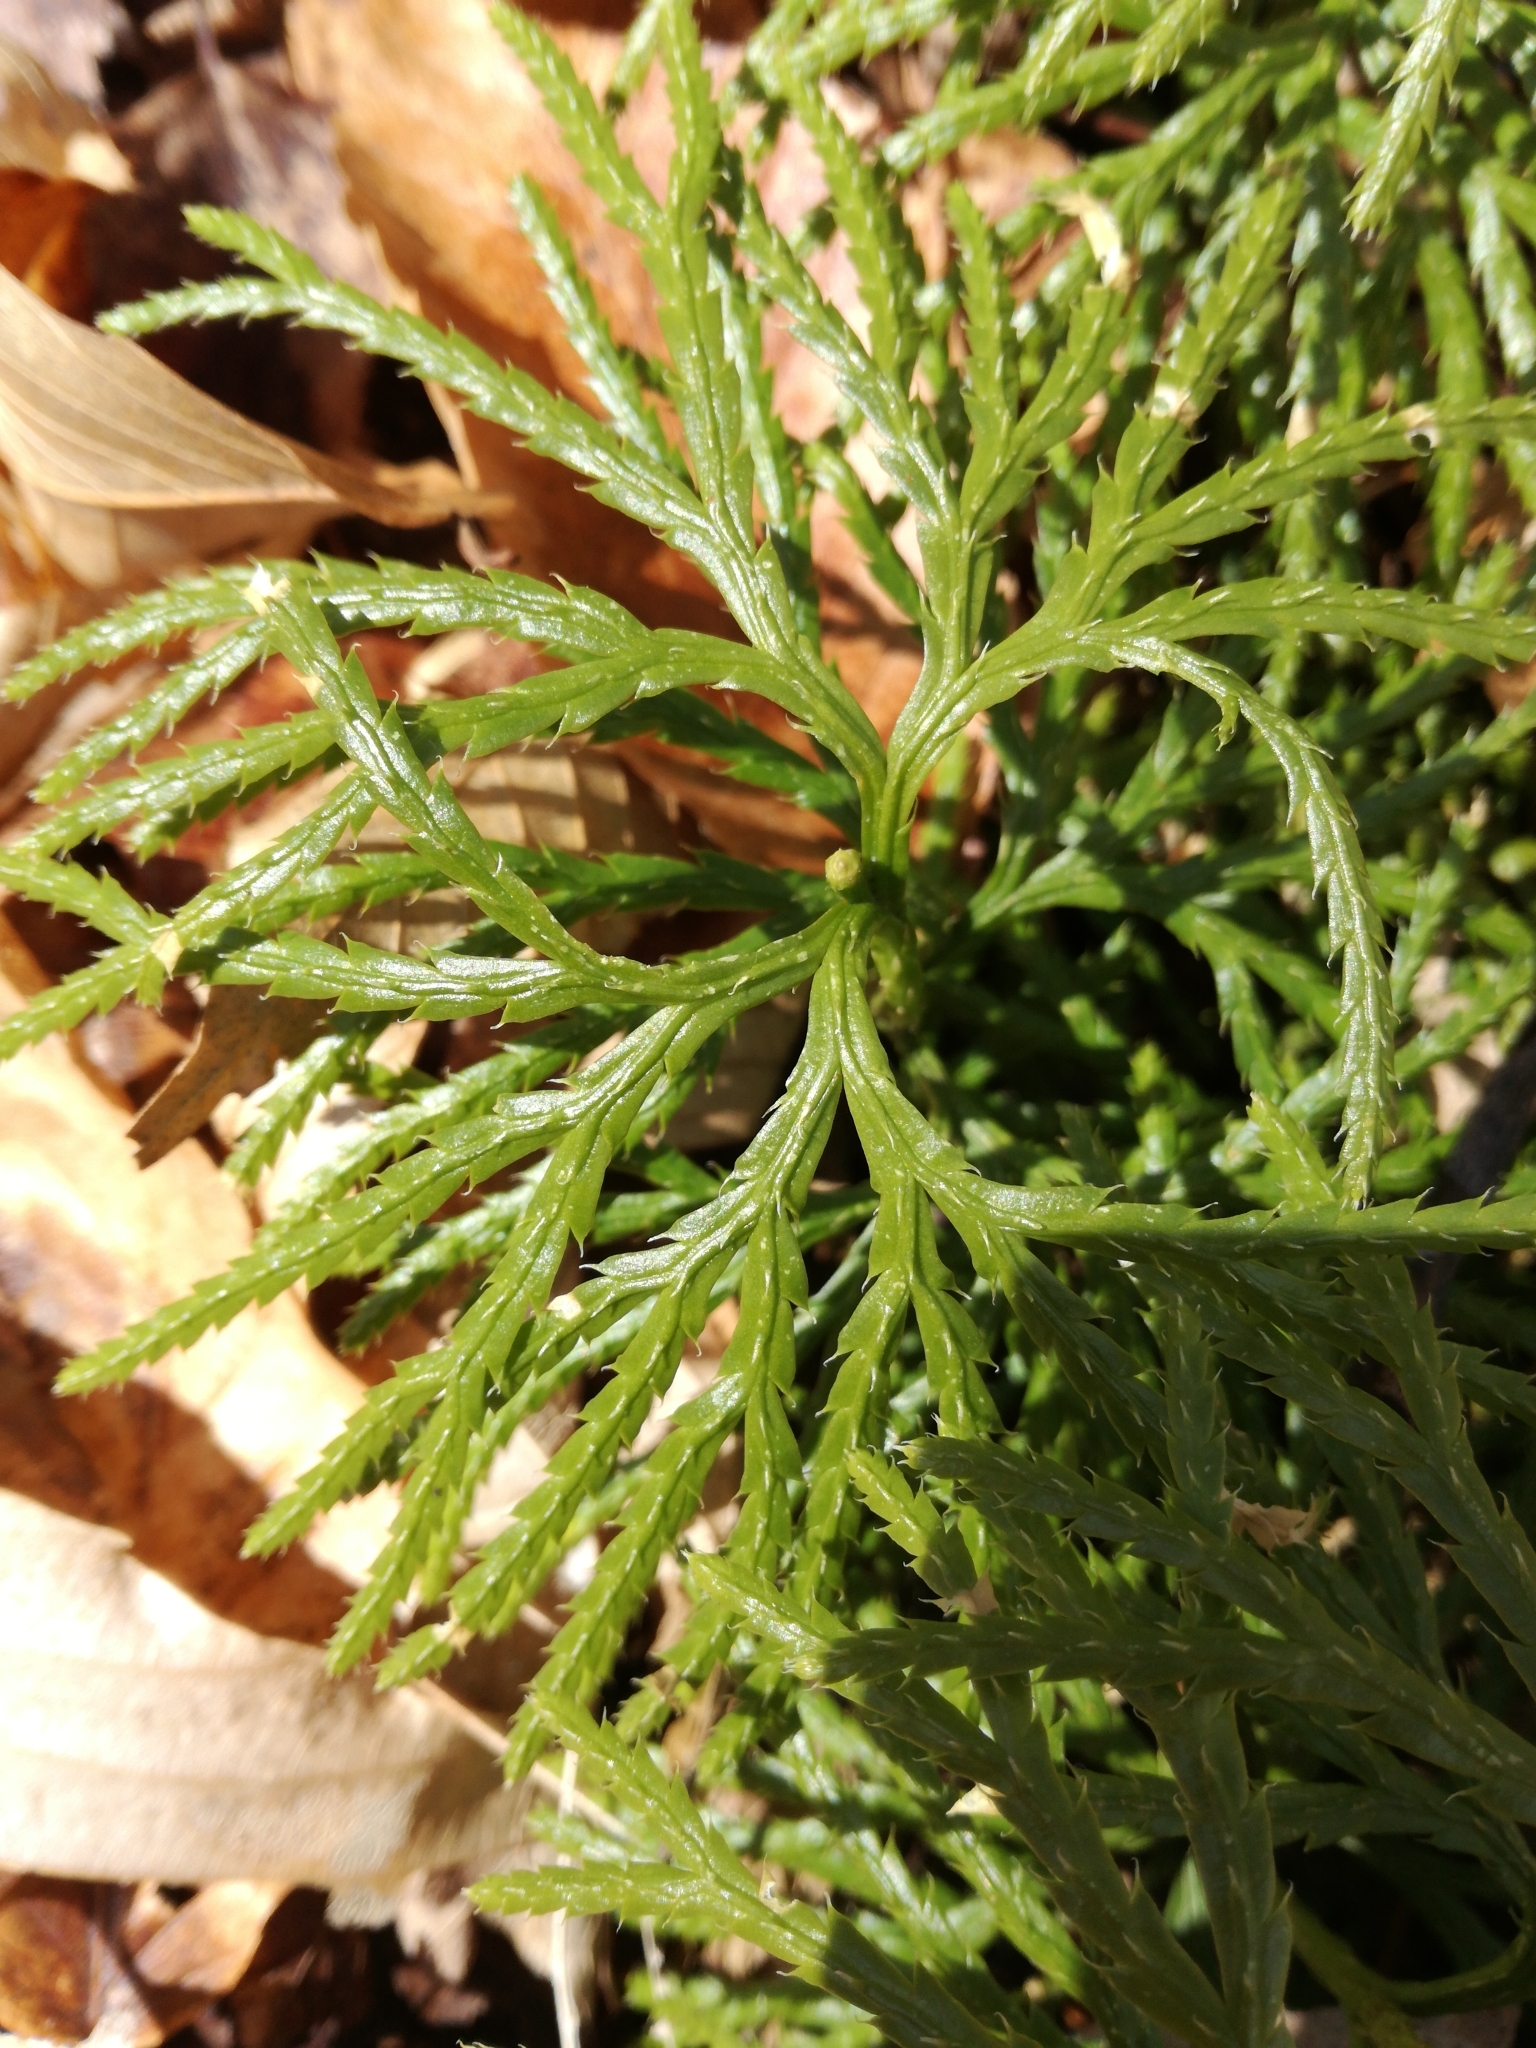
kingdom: Plantae
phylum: Tracheophyta
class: Lycopodiopsida
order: Lycopodiales
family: Lycopodiaceae
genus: Diphasiastrum
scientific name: Diphasiastrum digitatum
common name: Southern running-pine
